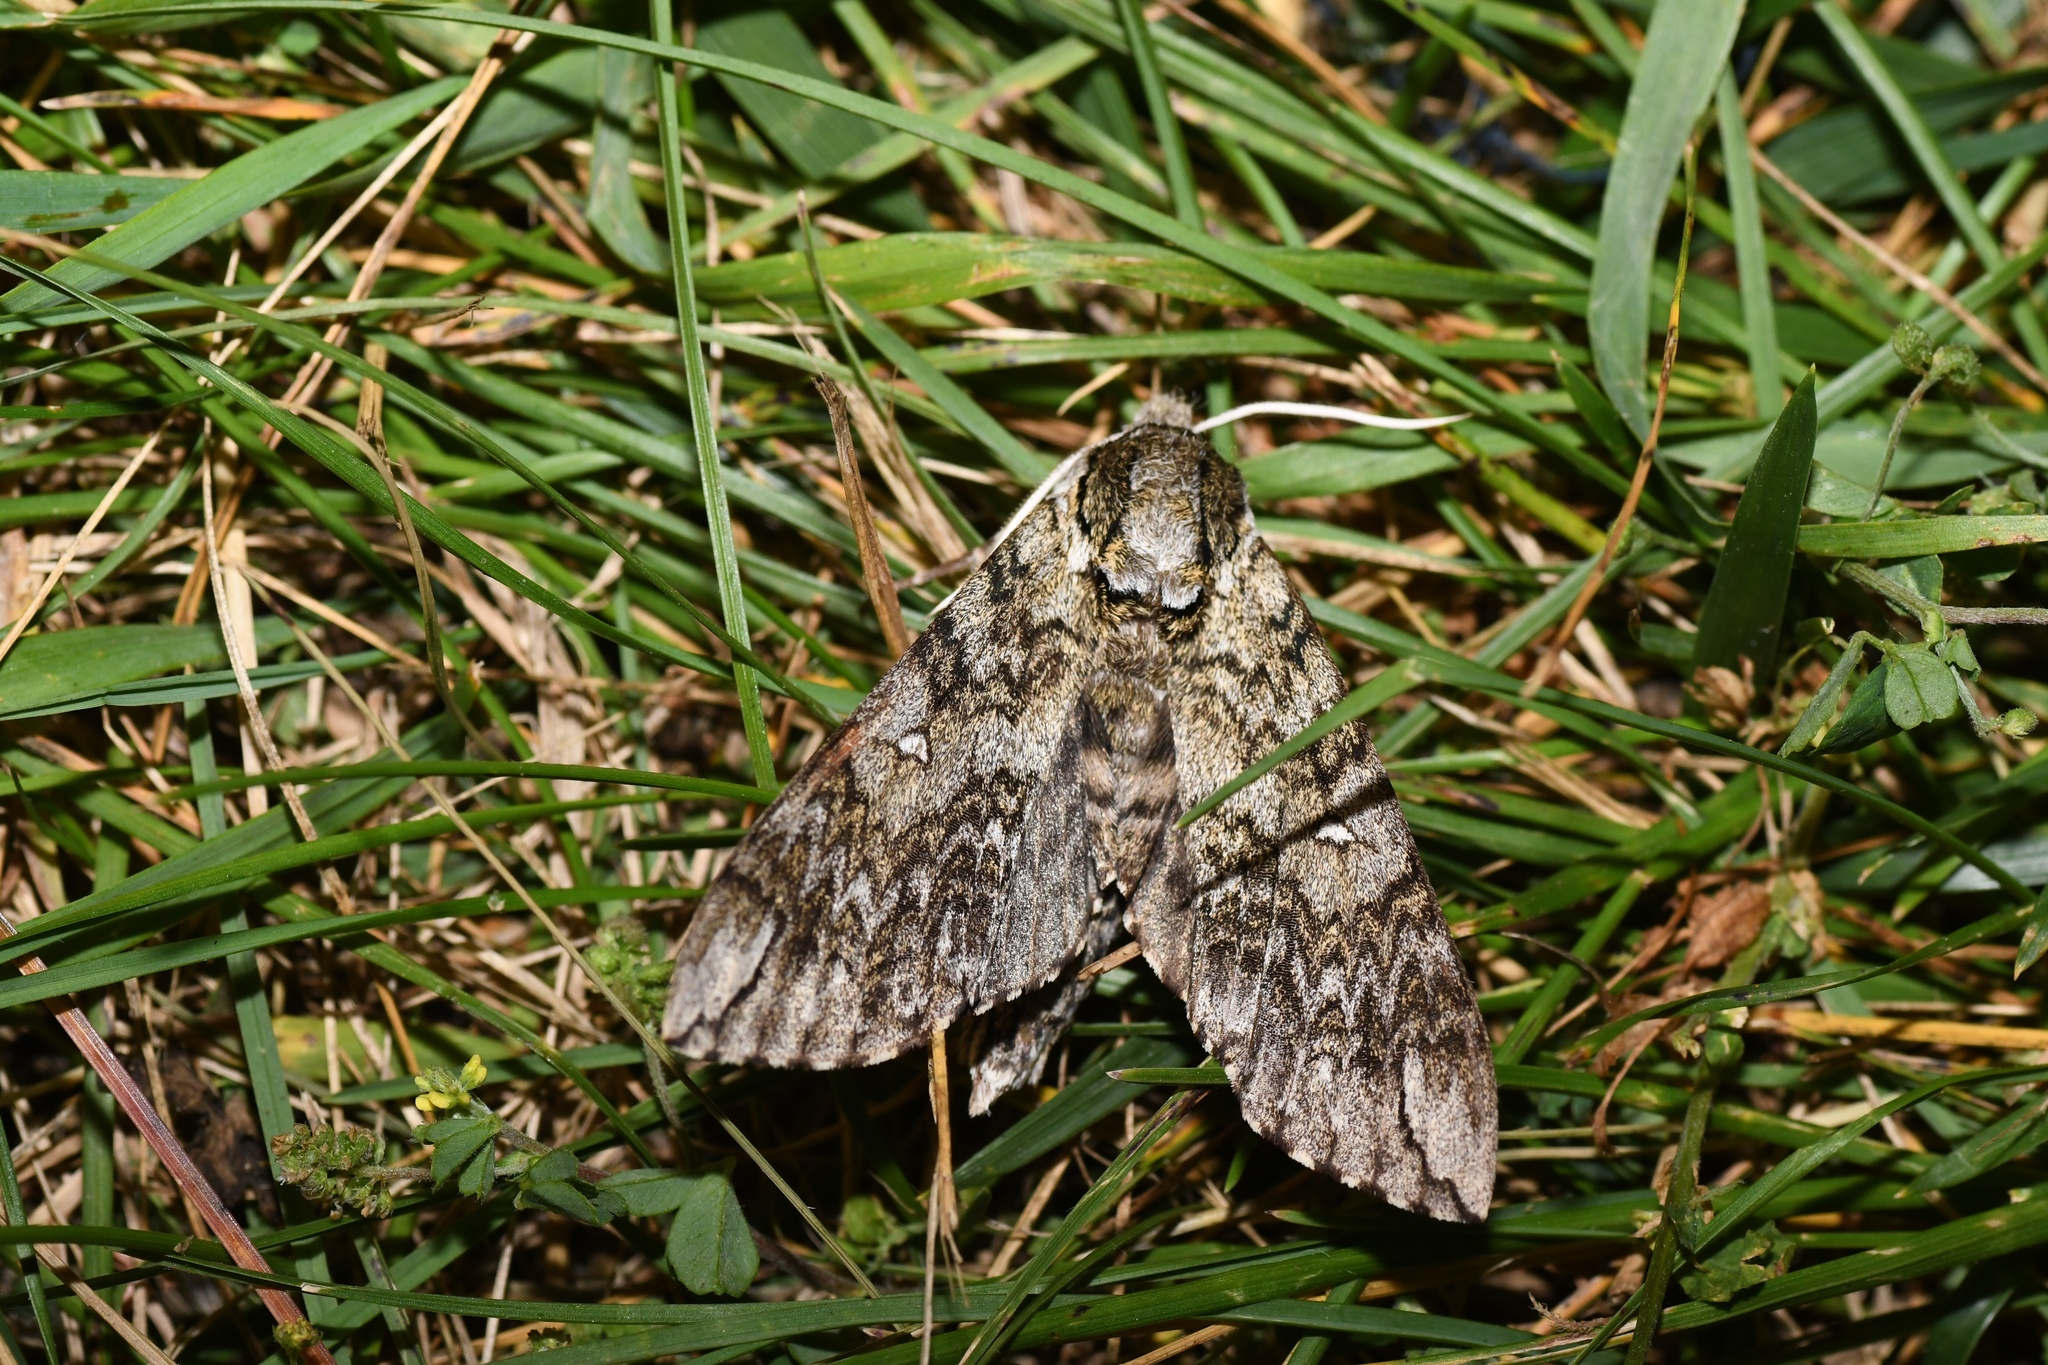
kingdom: Animalia
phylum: Arthropoda
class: Insecta
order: Lepidoptera
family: Sphingidae
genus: Ceratomia
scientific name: Ceratomia undulosa
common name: Waved sphinx
